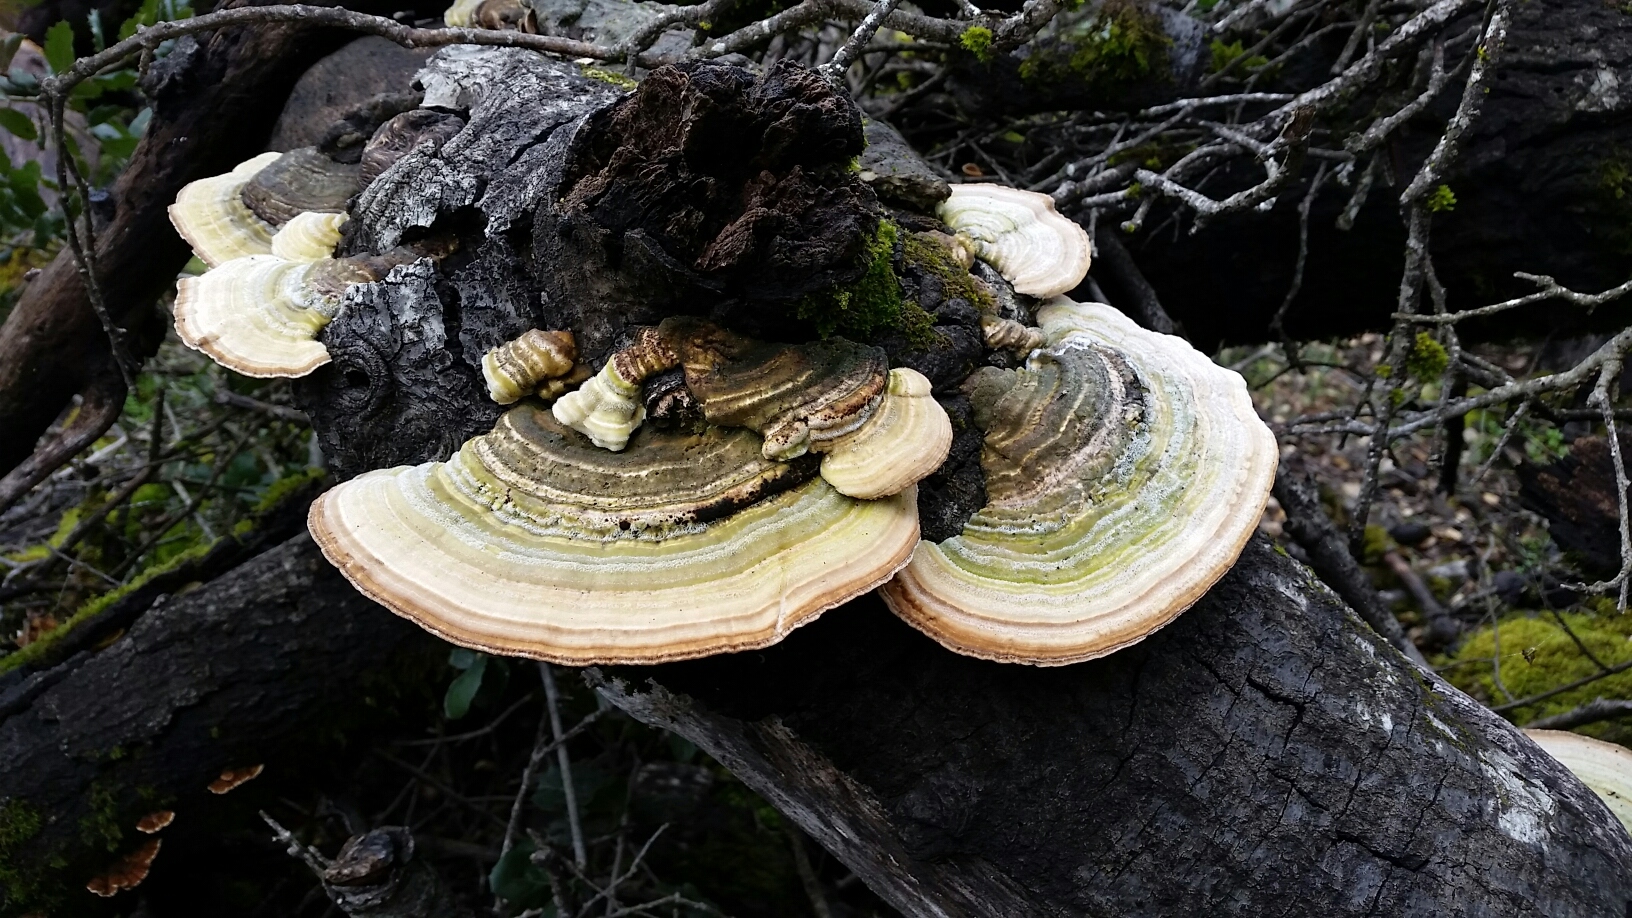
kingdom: Fungi
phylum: Basidiomycota
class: Agaricomycetes
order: Polyporales
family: Polyporaceae
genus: Lenzites
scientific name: Lenzites betulinus
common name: Birch mazegill
